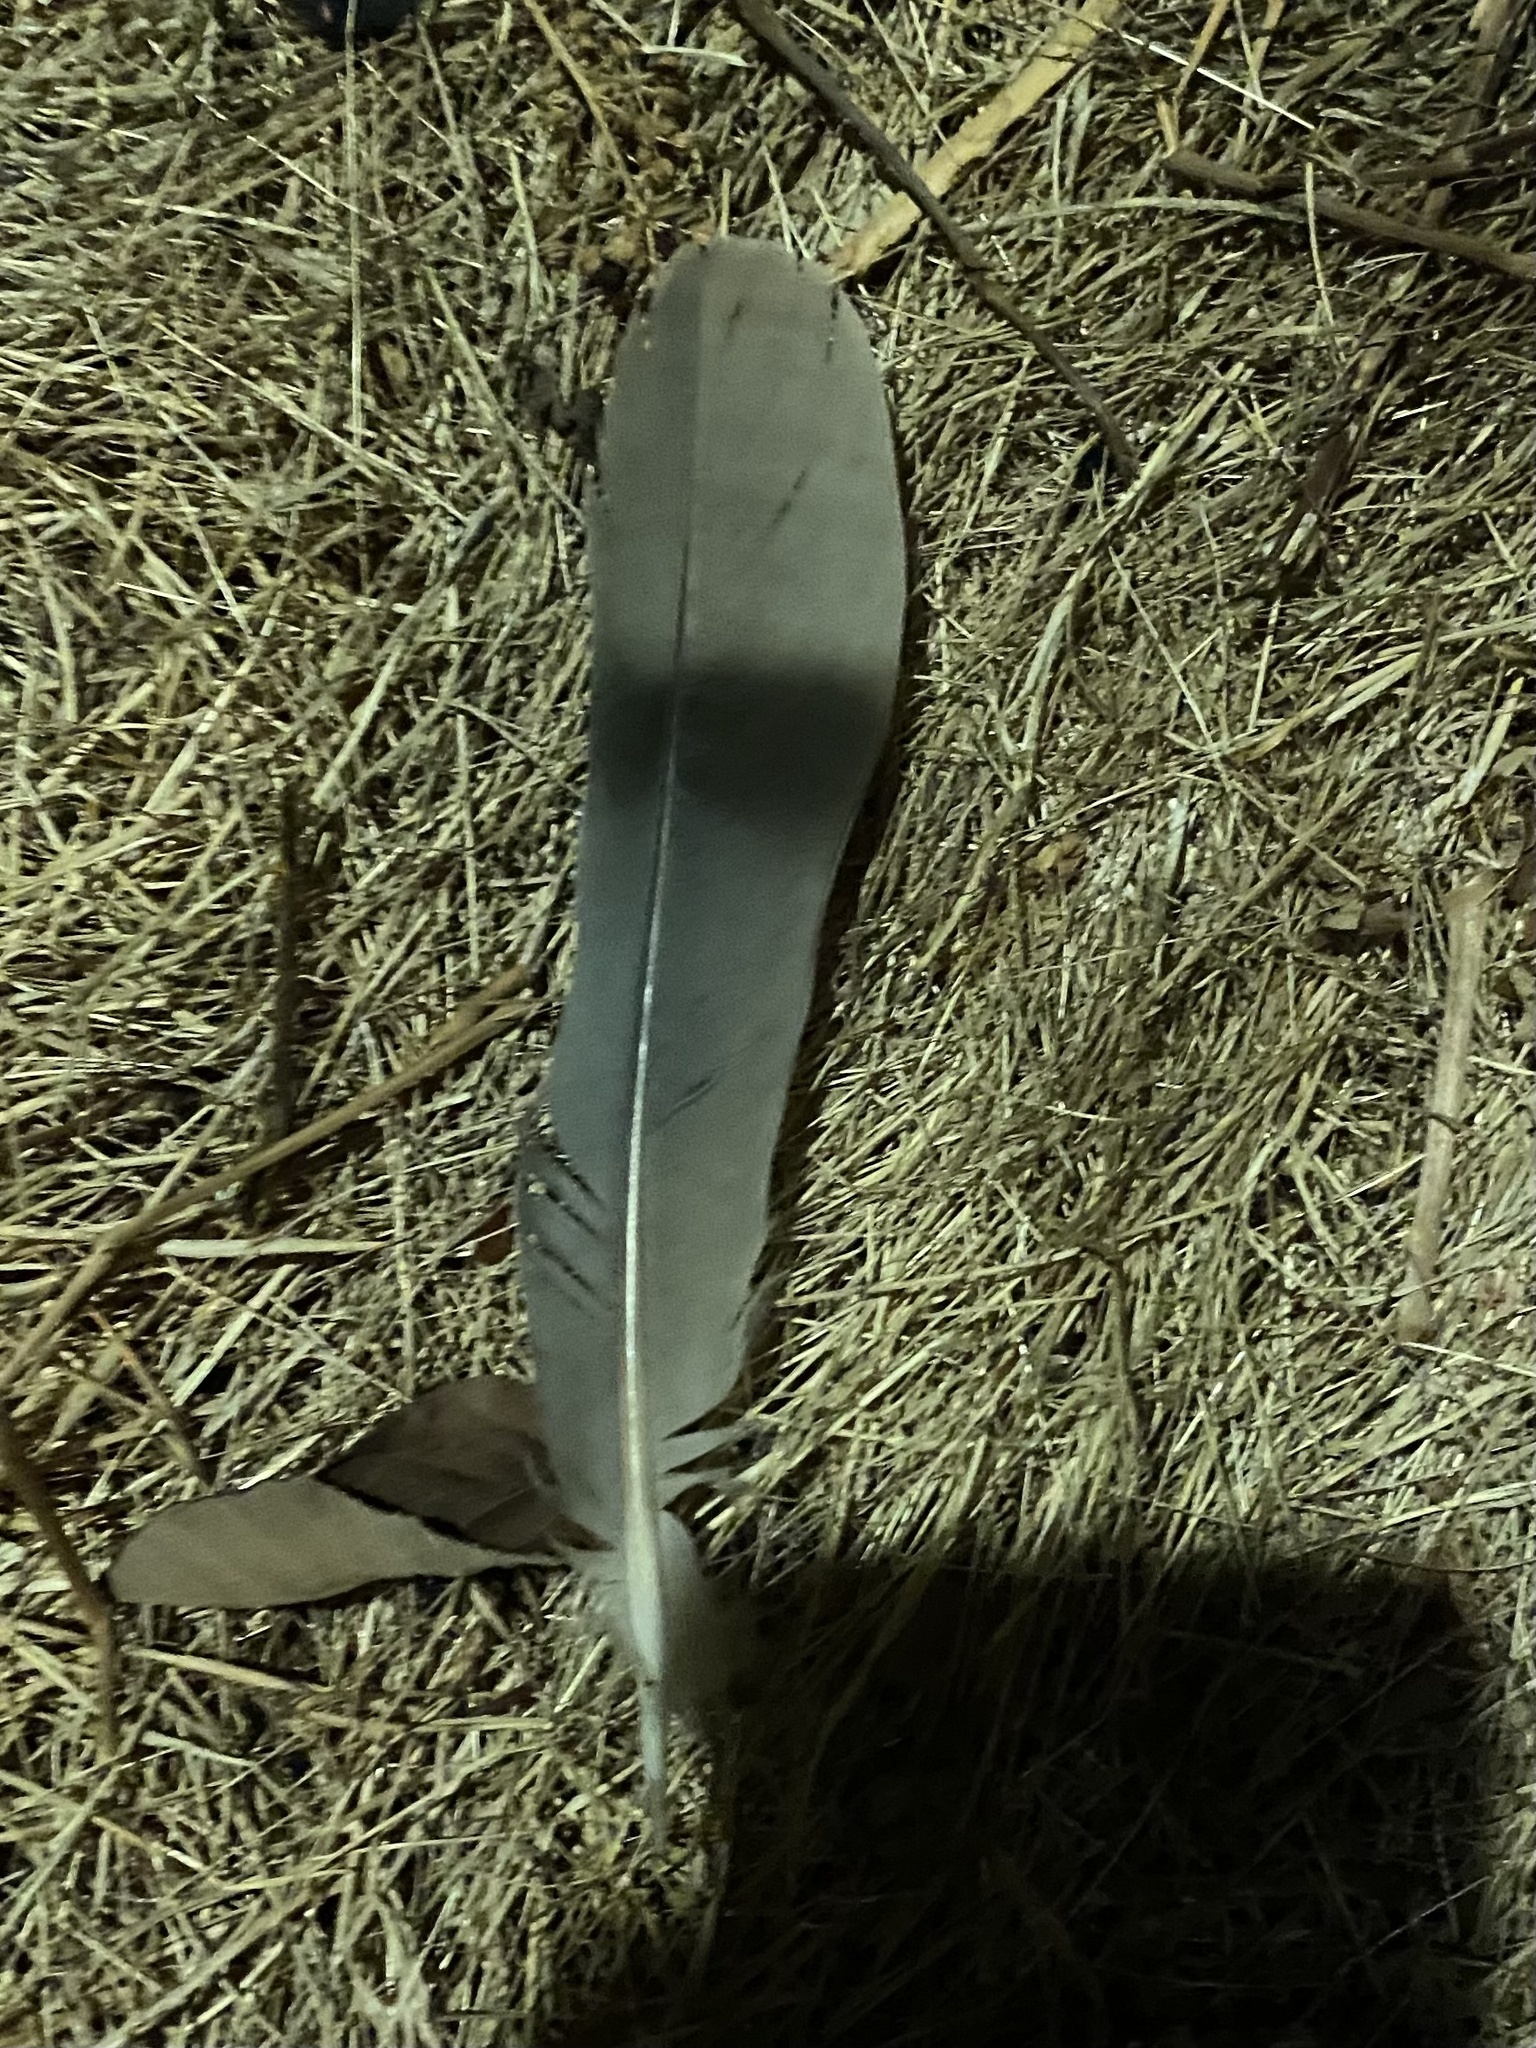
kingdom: Animalia
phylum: Chordata
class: Aves
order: Columbiformes
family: Columbidae
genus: Patagioenas
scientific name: Patagioenas fasciata
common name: Band-tailed pigeon
